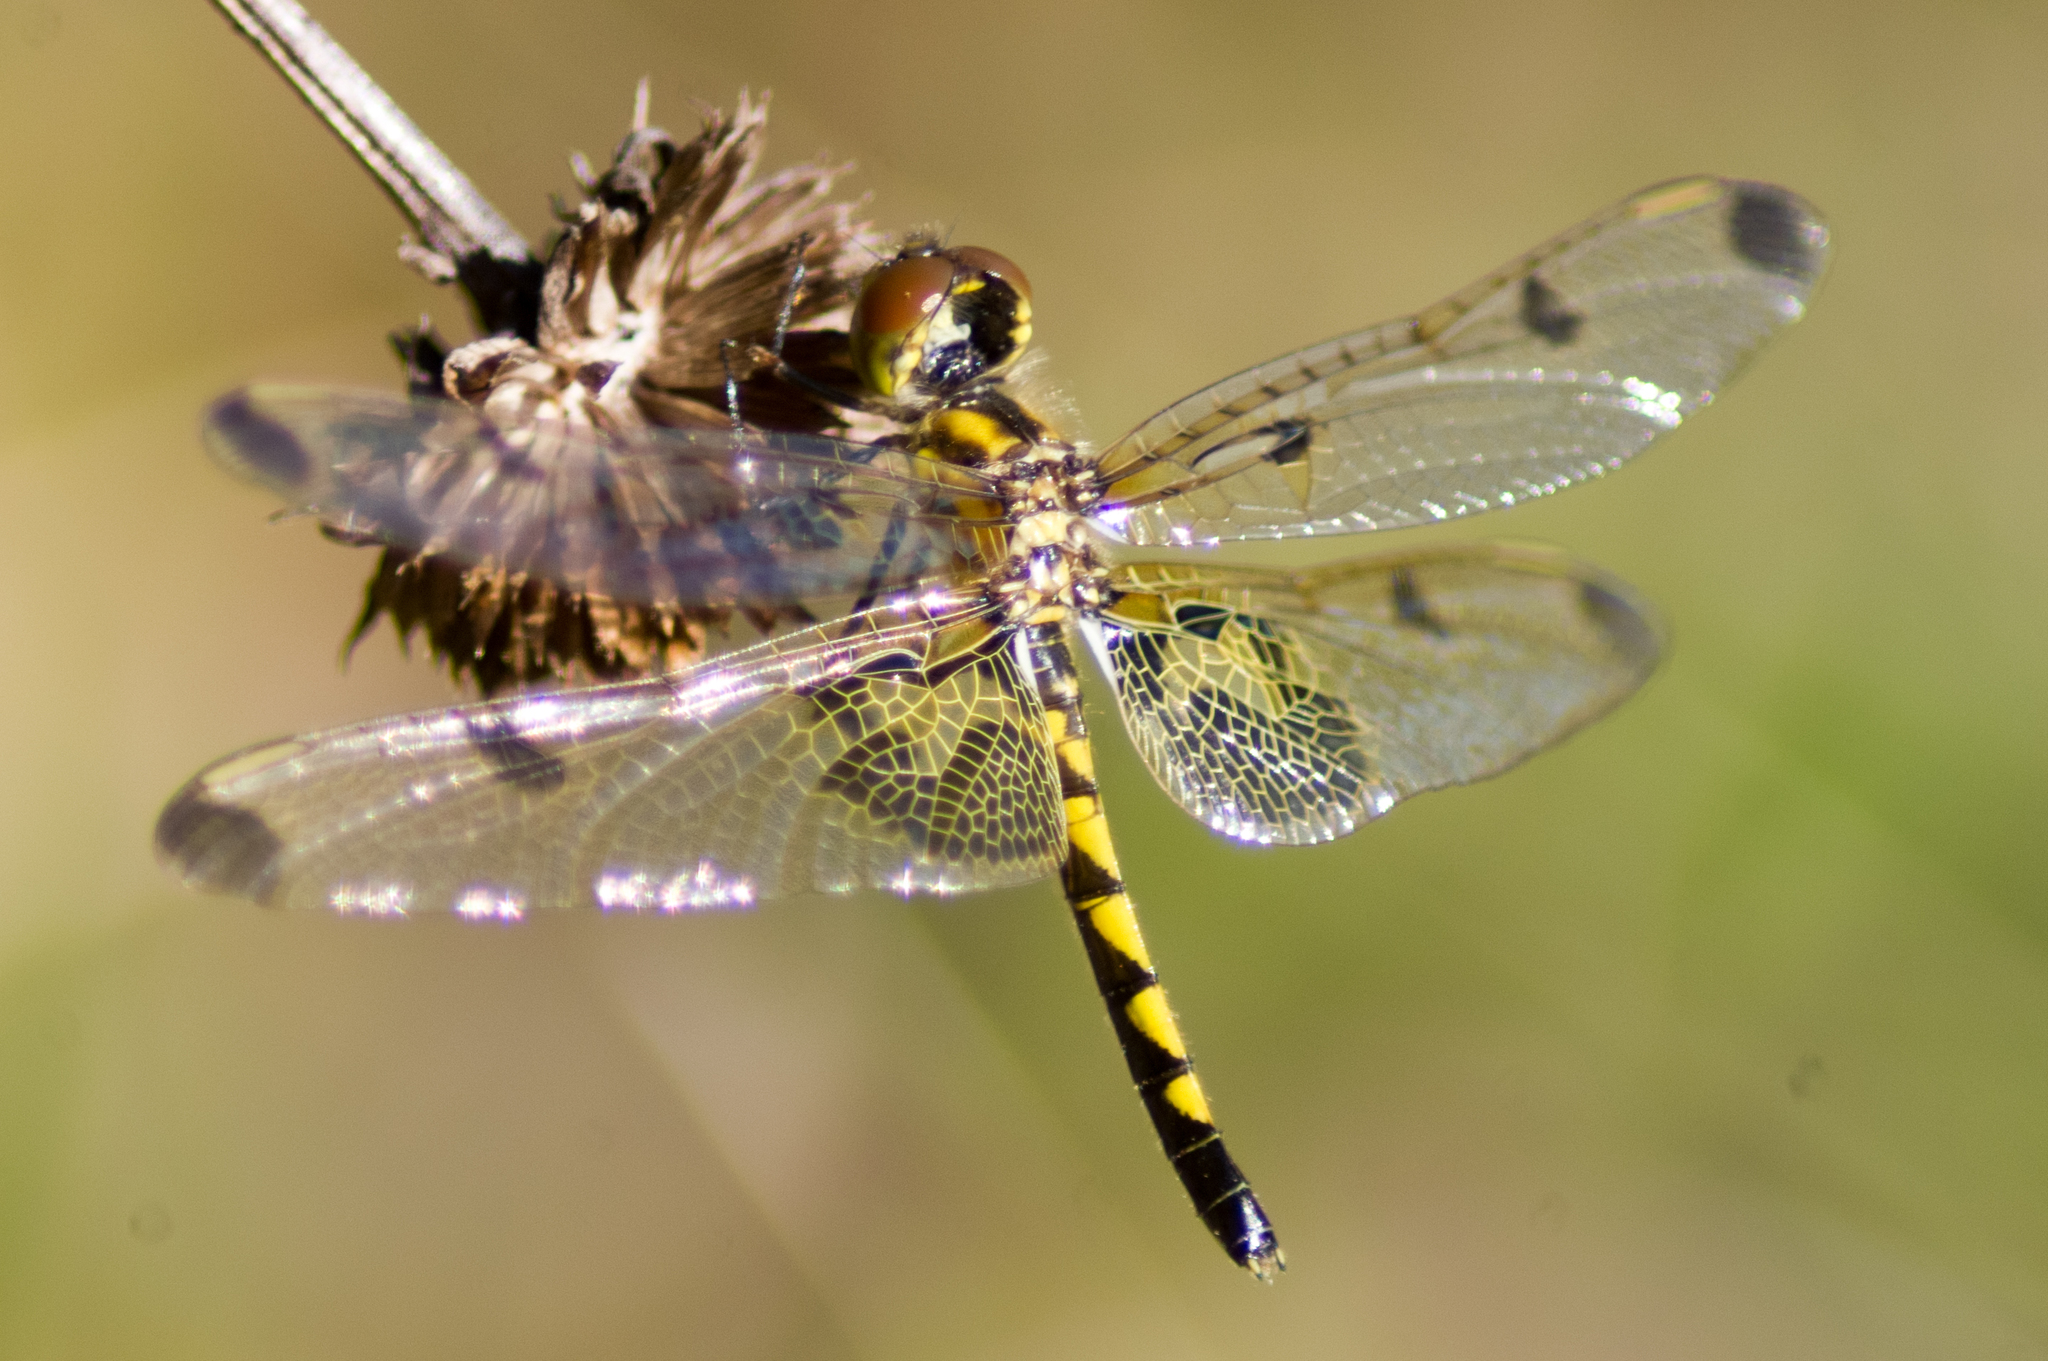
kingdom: Animalia
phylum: Arthropoda
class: Insecta
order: Odonata
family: Libellulidae
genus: Celithemis
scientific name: Celithemis elisa
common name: Calico pennant
